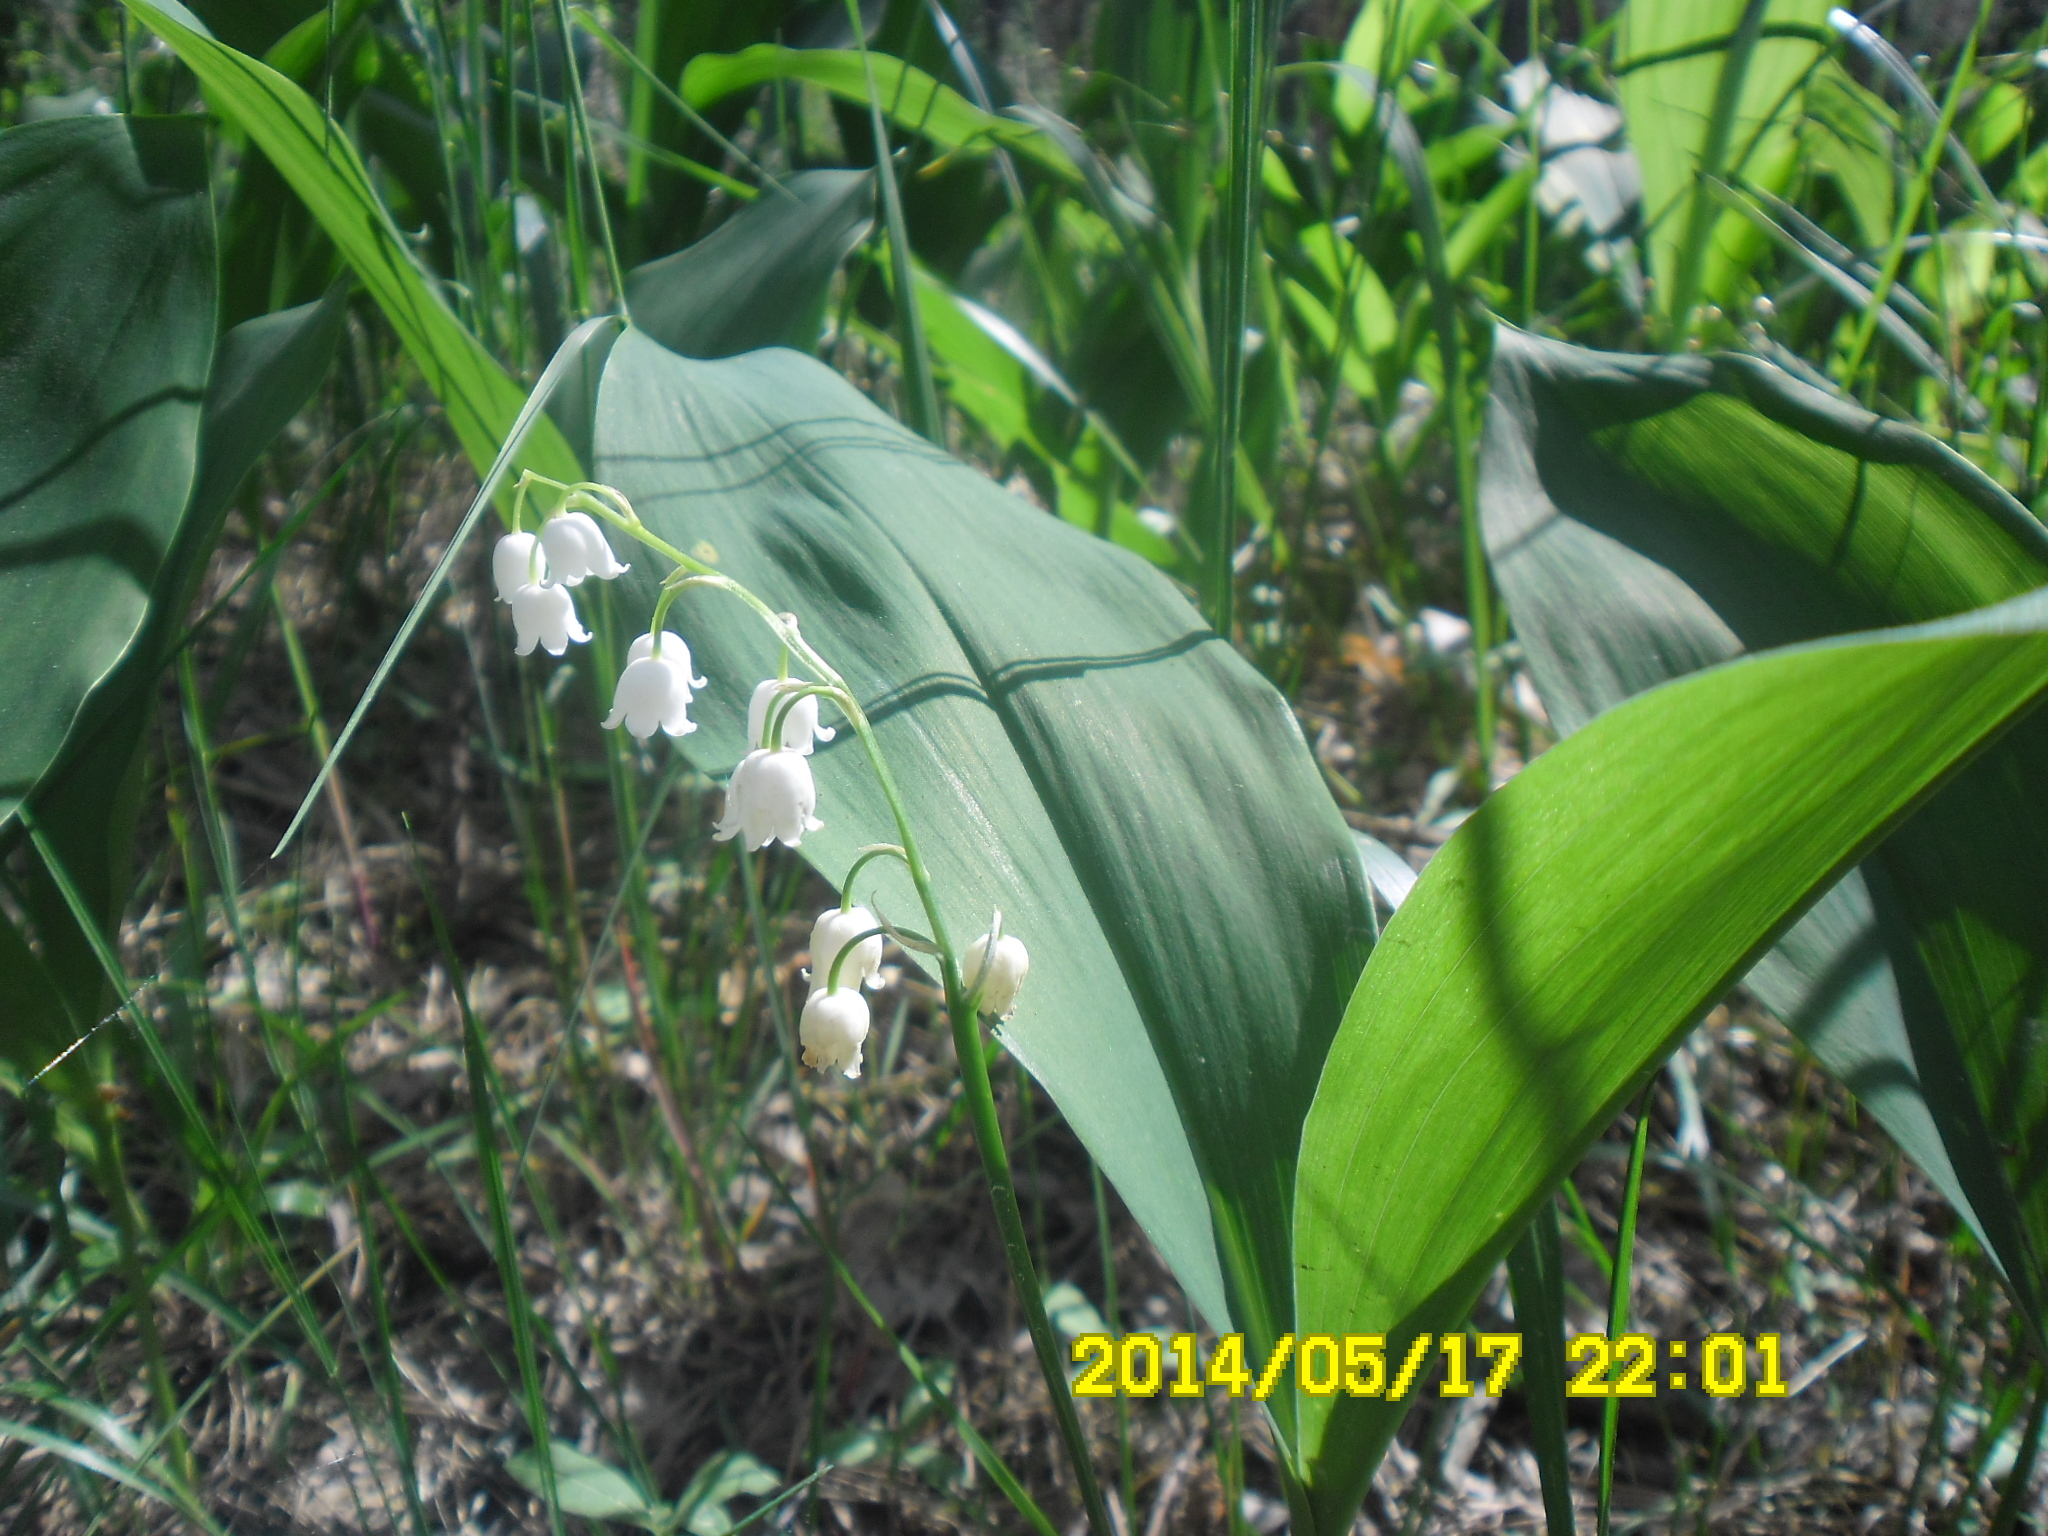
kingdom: Plantae
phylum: Tracheophyta
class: Liliopsida
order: Asparagales
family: Asparagaceae
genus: Convallaria
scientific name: Convallaria majalis
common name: Lily-of-the-valley
